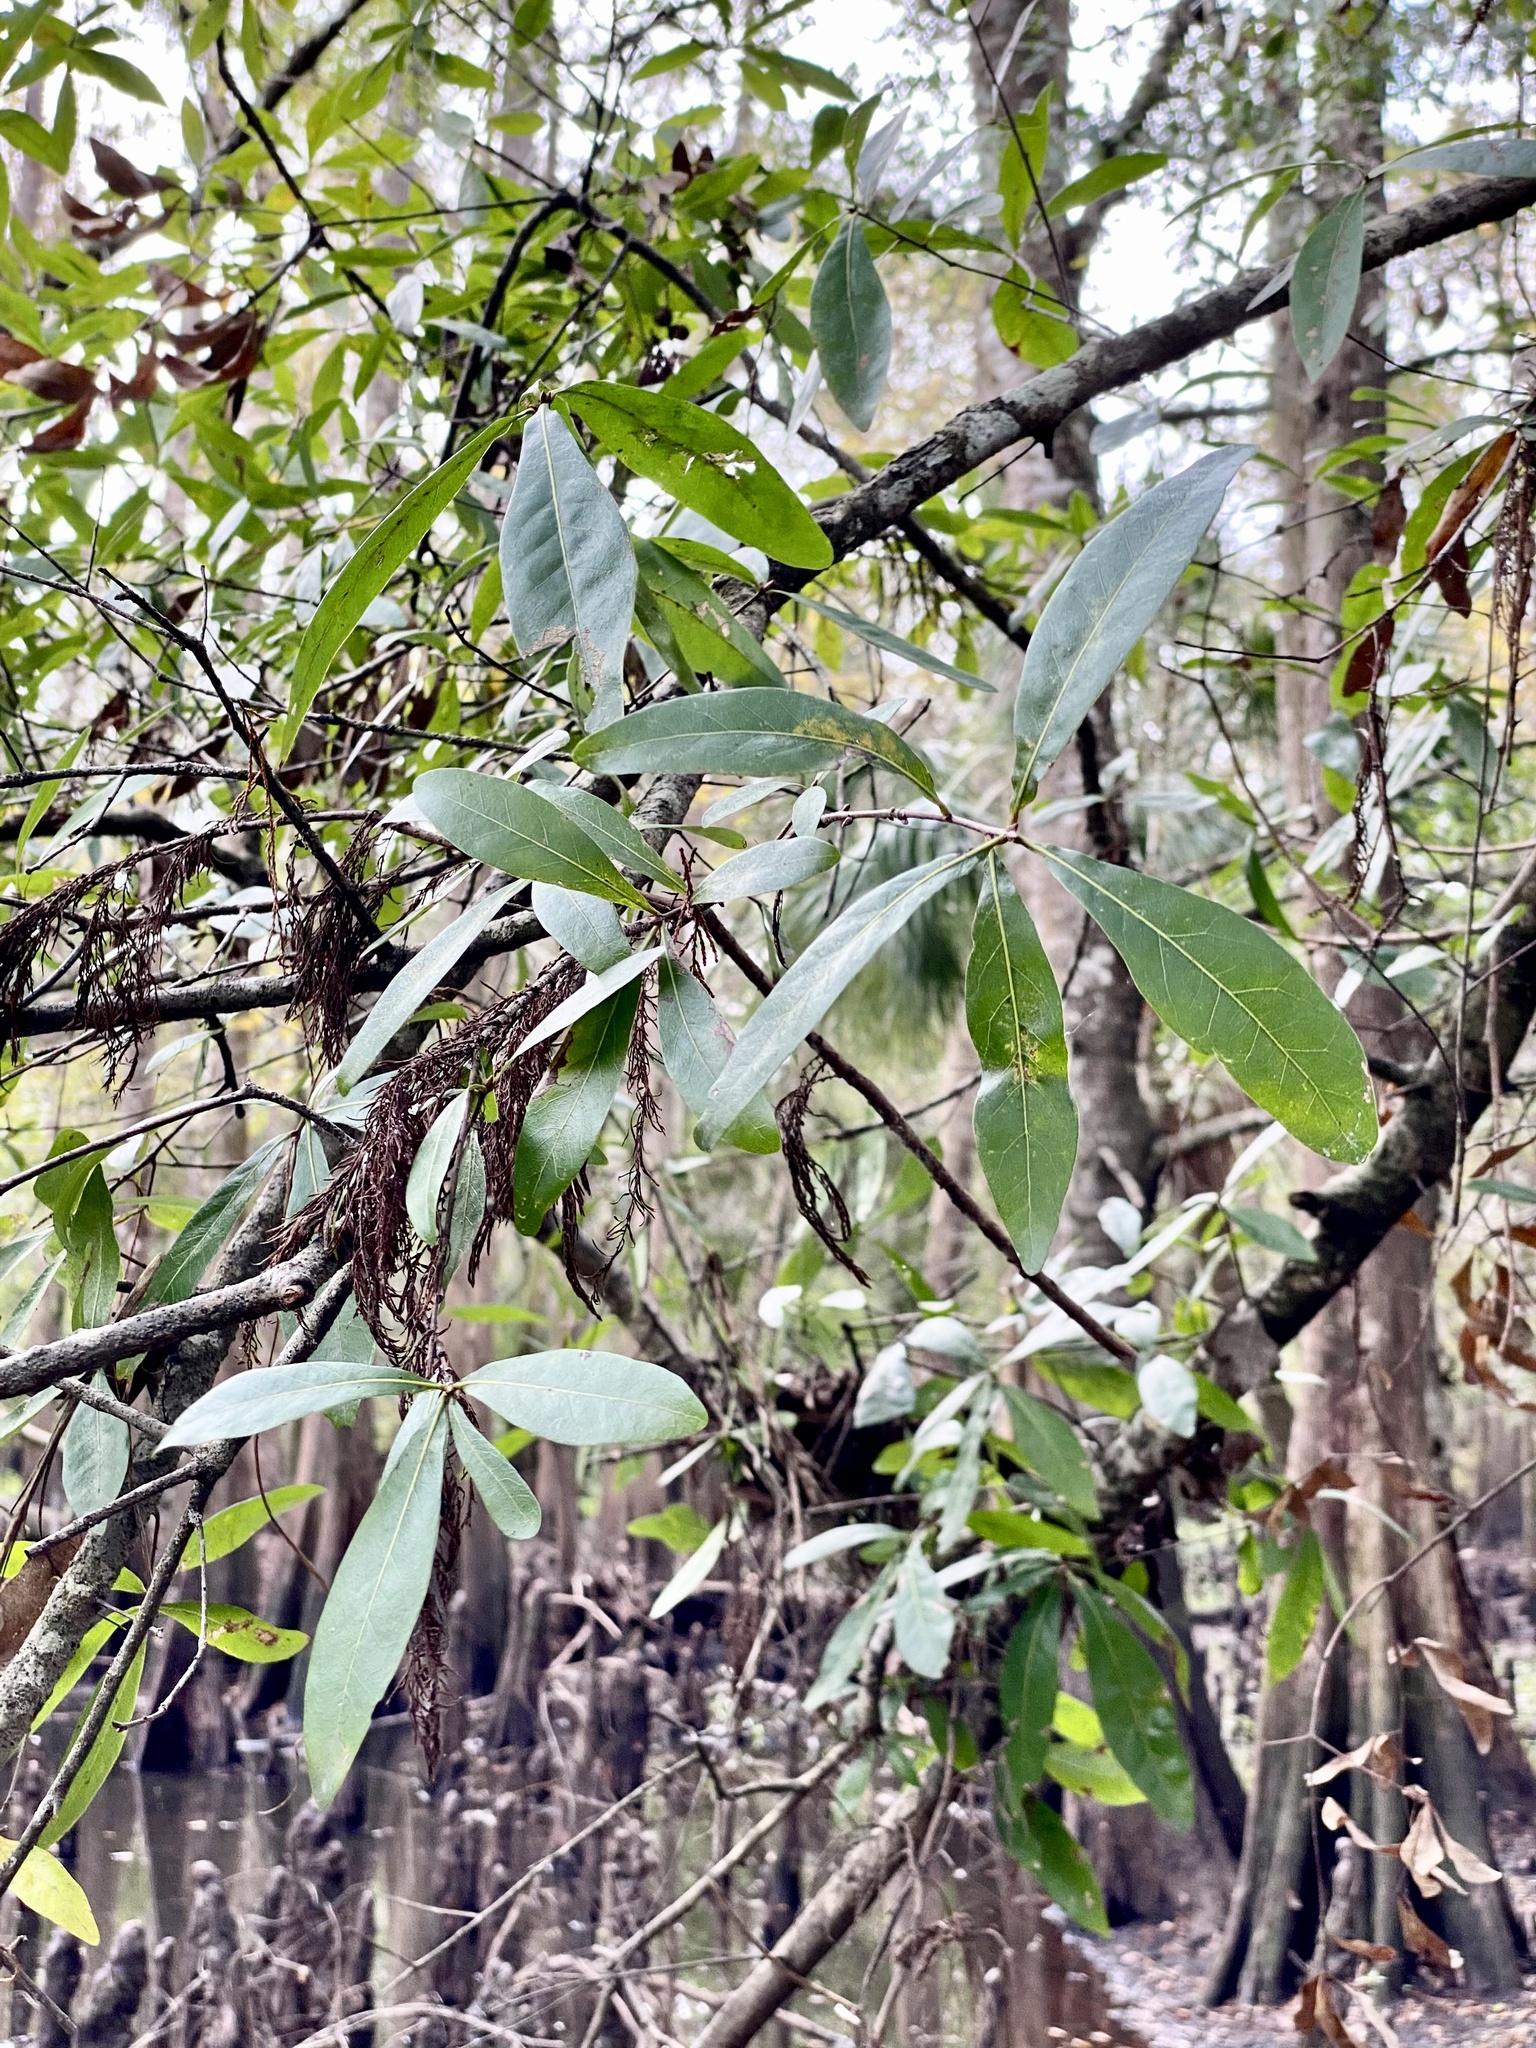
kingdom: Plantae
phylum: Tracheophyta
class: Magnoliopsida
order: Fagales
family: Fagaceae
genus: Quercus
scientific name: Quercus laurifolia
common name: Swamp laurel oak
